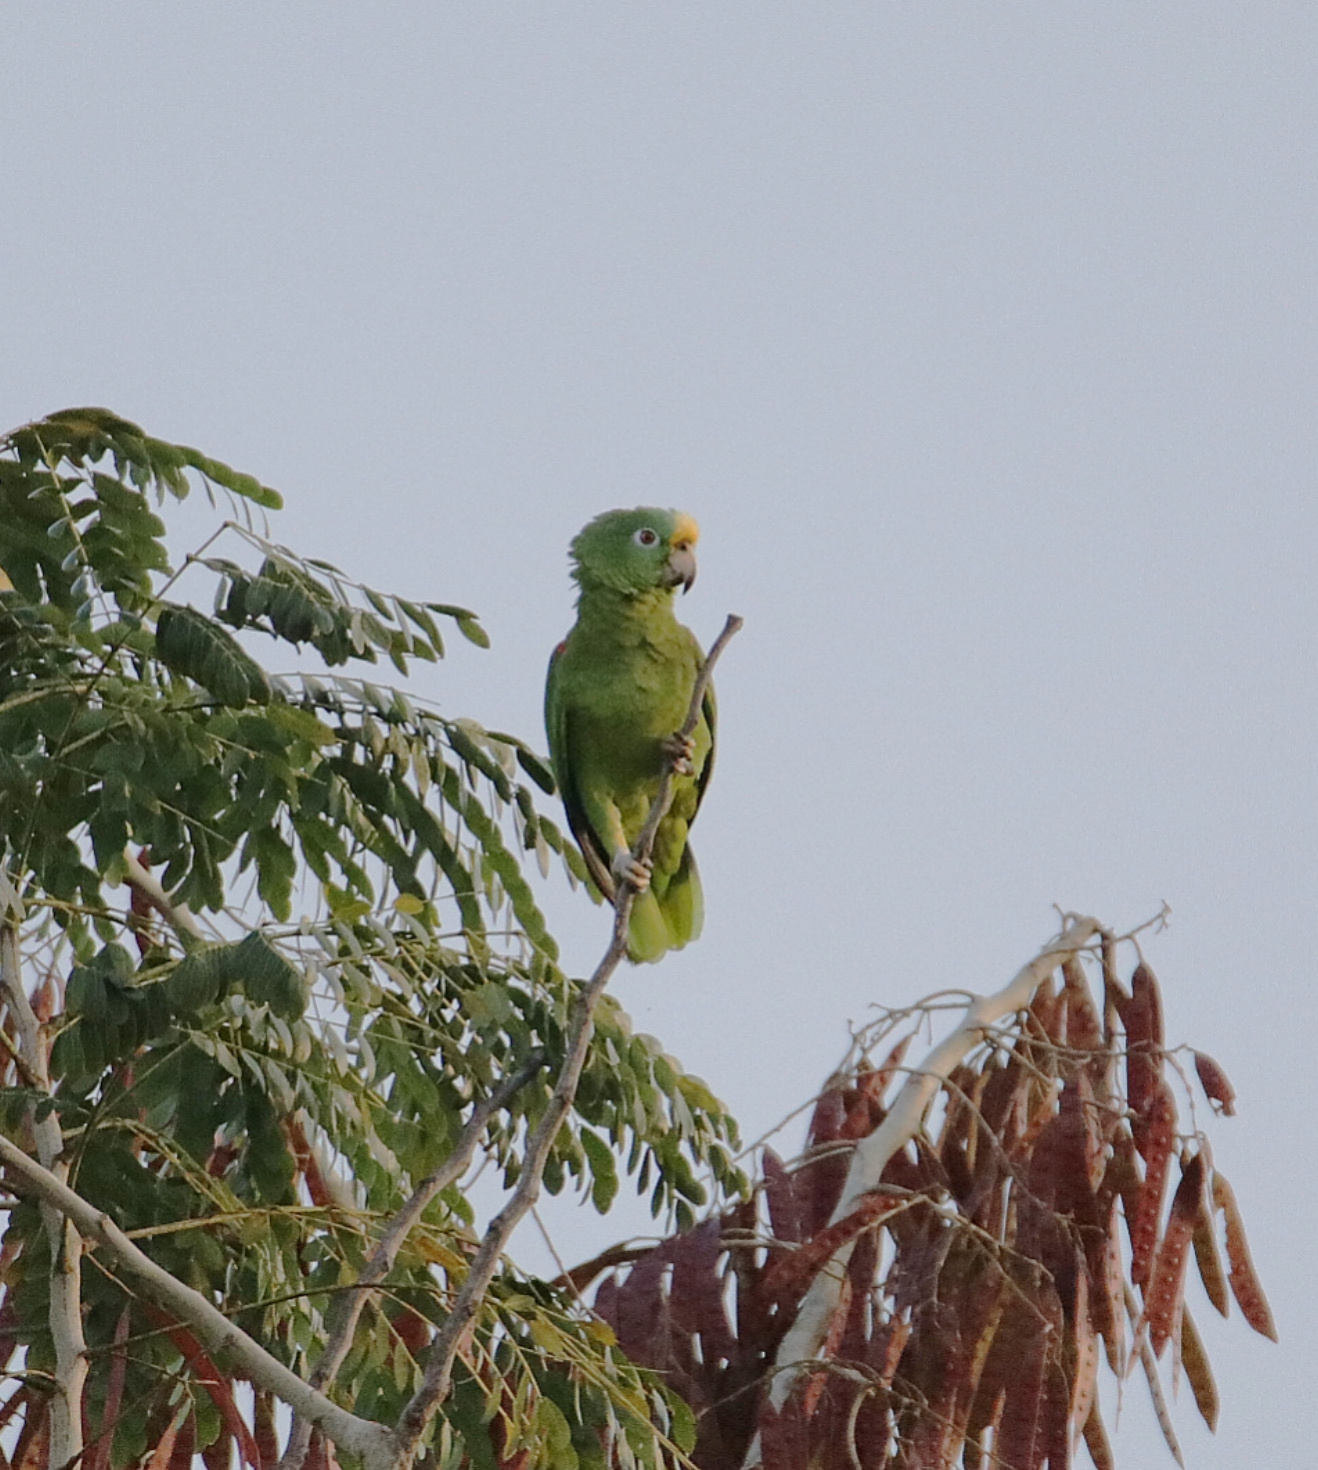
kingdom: Animalia
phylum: Chordata
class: Aves
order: Psittaciformes
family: Psittacidae
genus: Amazona
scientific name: Amazona ochrocephala
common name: Yellow-crowned amazon
